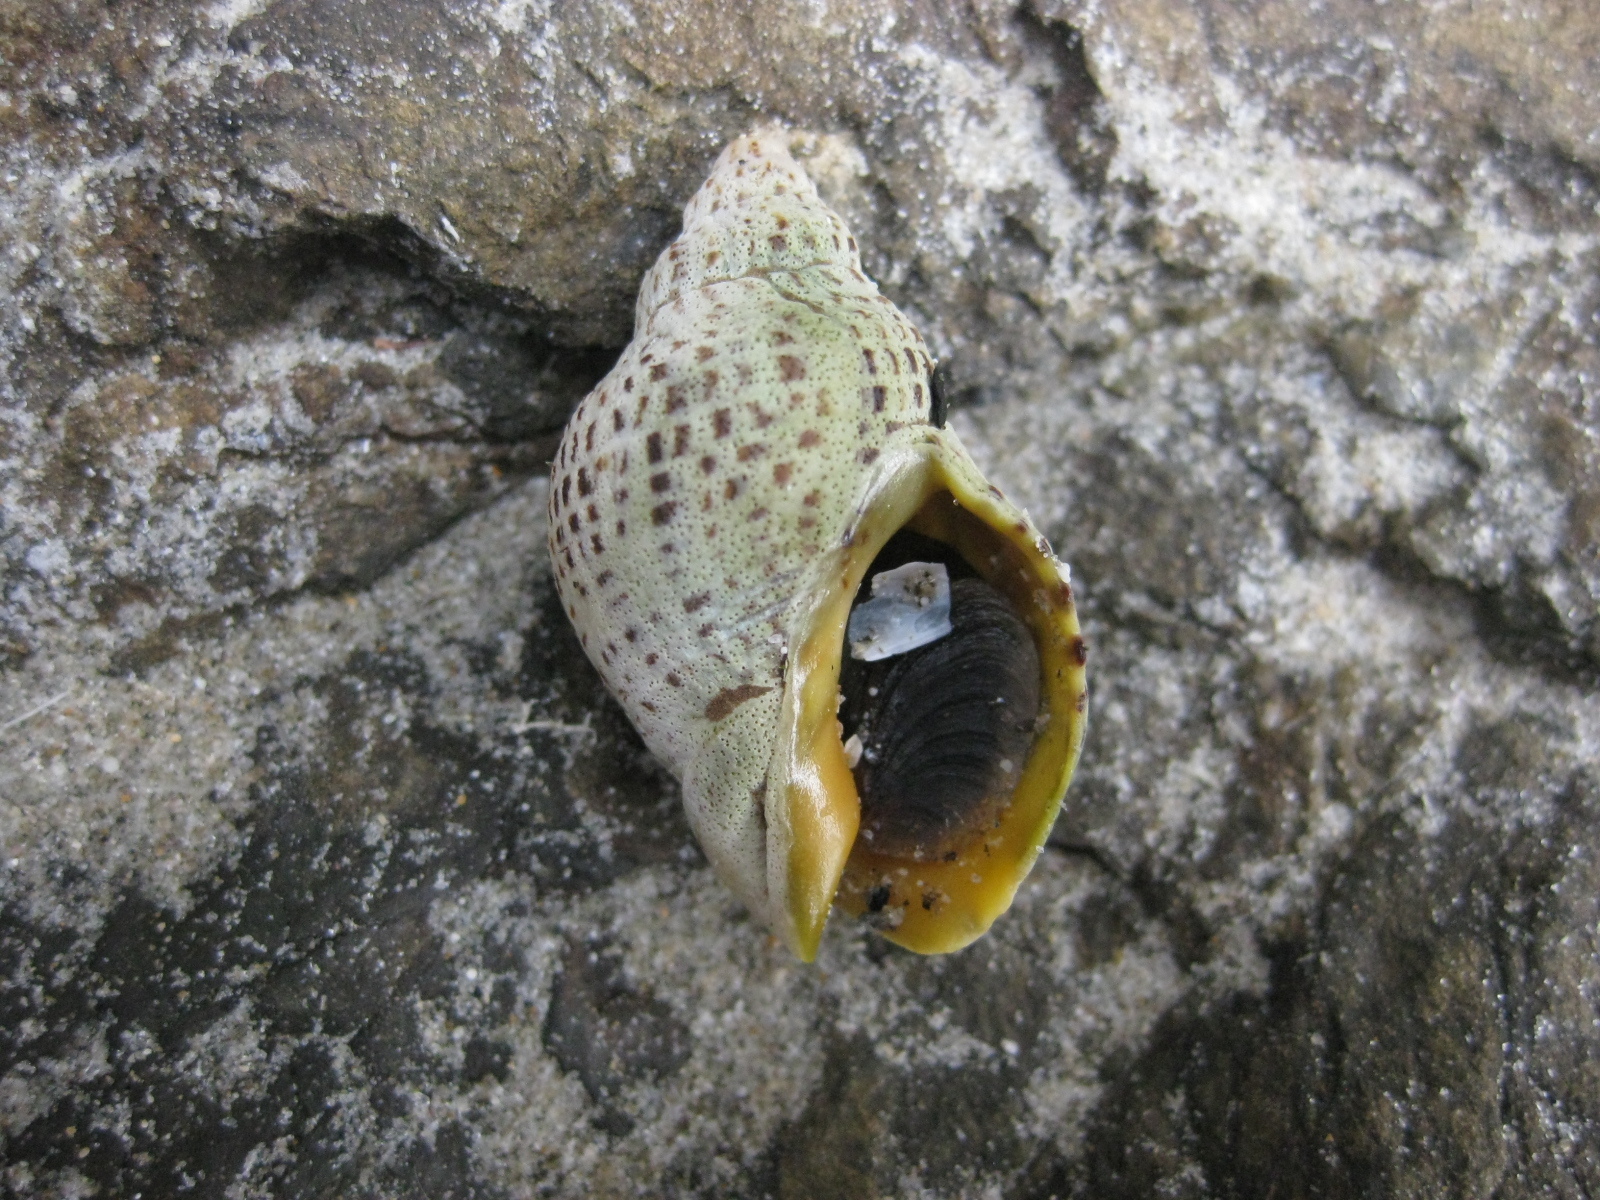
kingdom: Animalia
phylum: Mollusca
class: Gastropoda
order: Neogastropoda
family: Cominellidae
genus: Cominella
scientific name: Cominella adspersa
